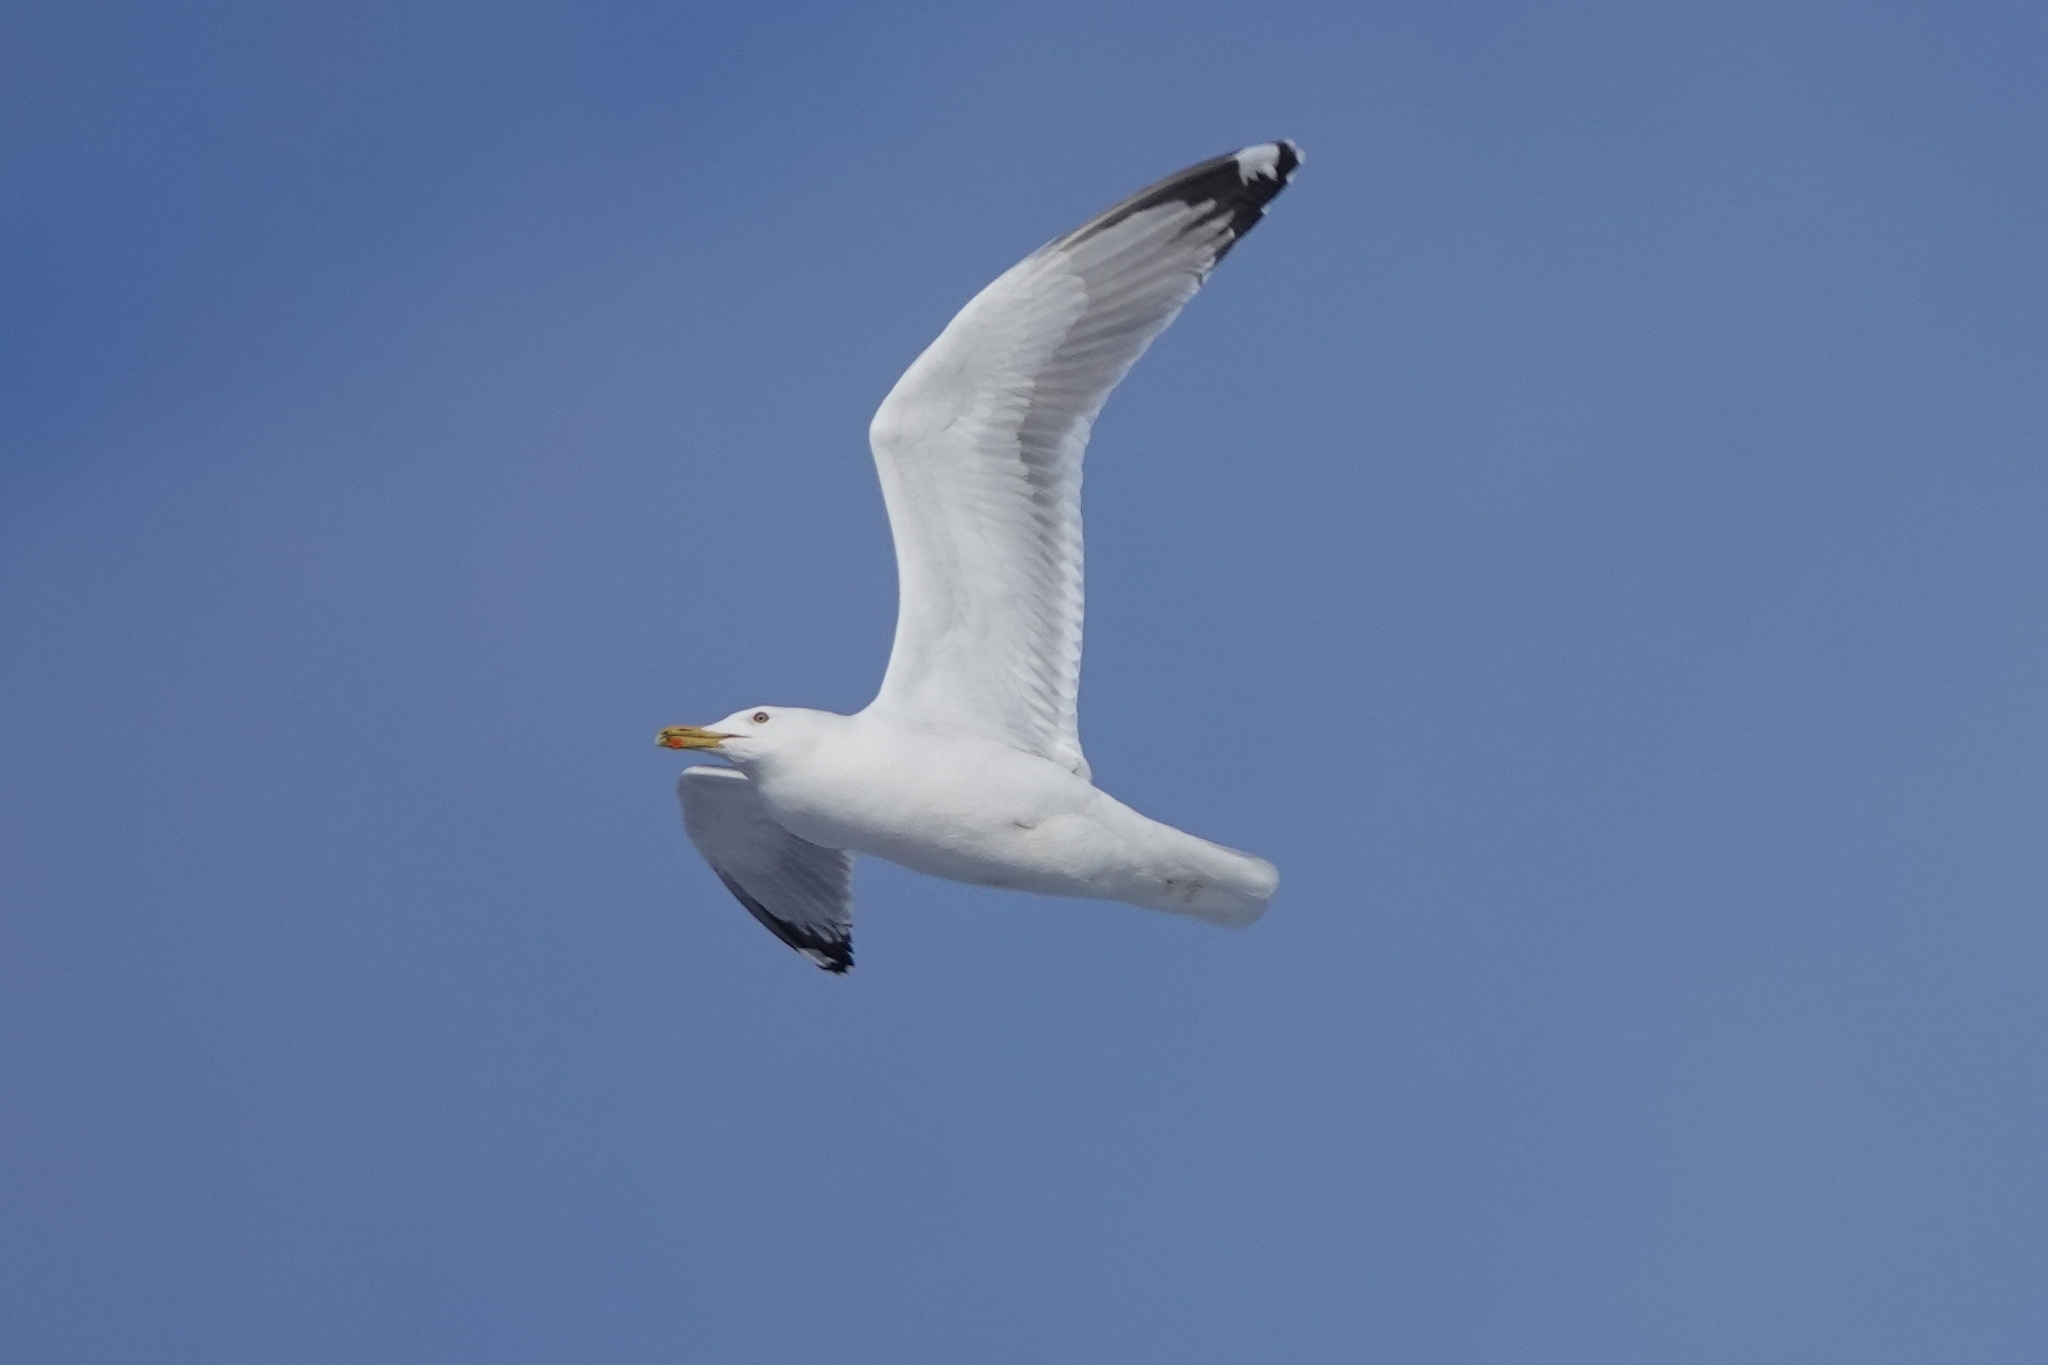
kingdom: Animalia
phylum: Chordata
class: Aves
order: Charadriiformes
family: Laridae
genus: Larus
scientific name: Larus cachinnans
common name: Caspian gull
